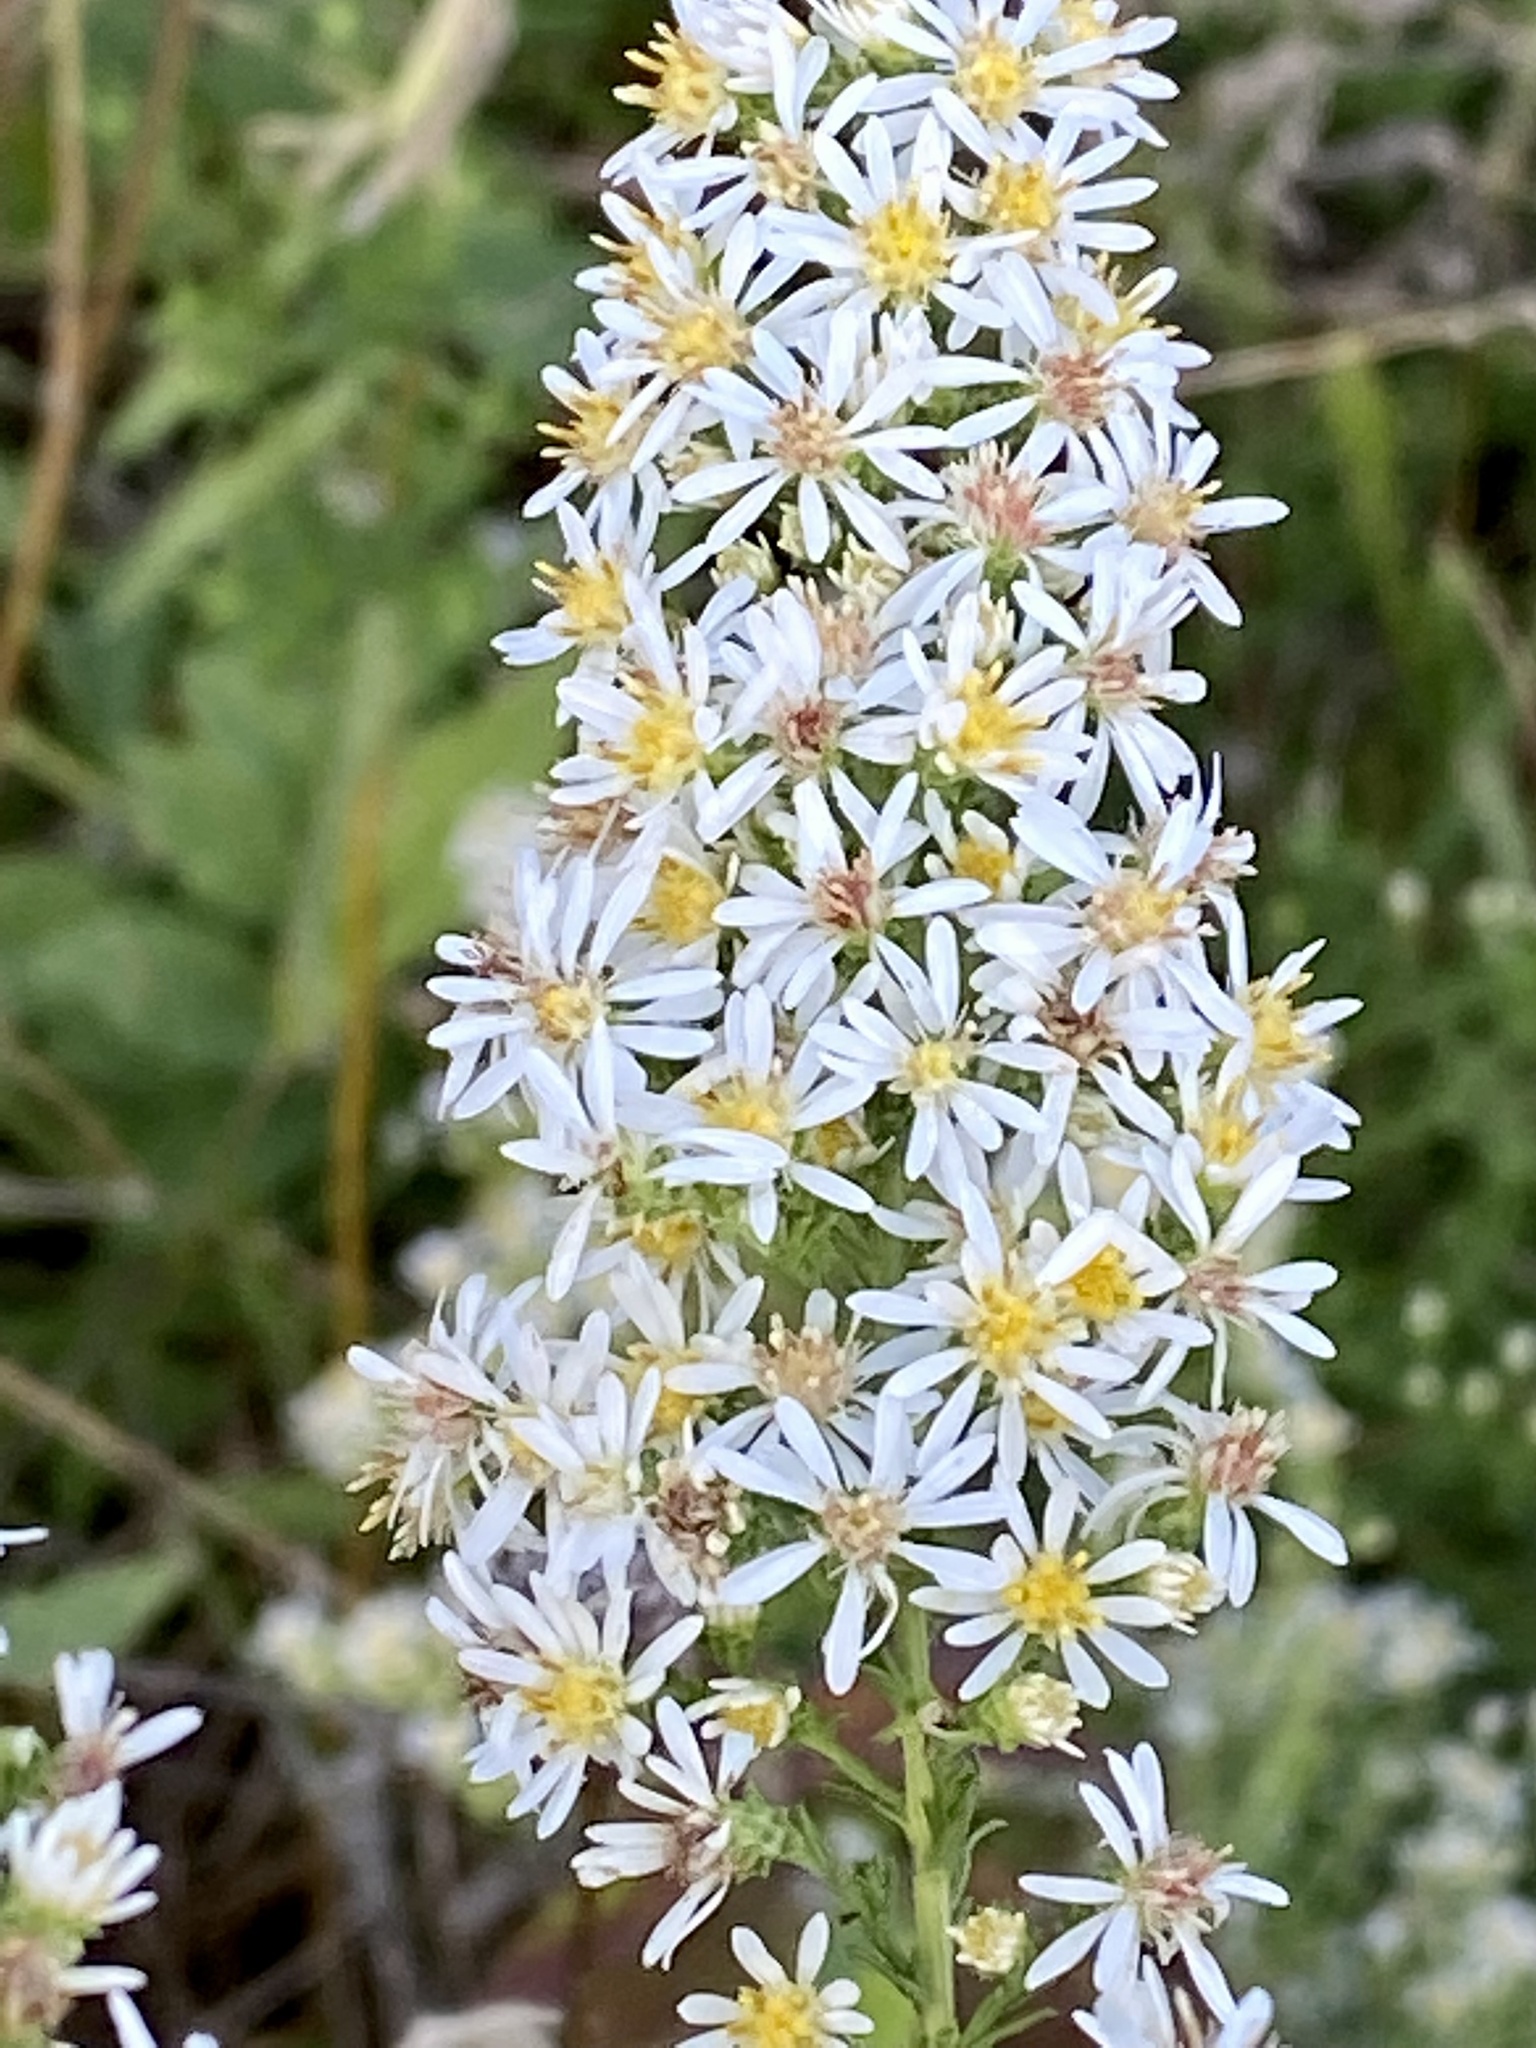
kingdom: Plantae
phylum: Tracheophyta
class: Magnoliopsida
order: Asterales
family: Asteraceae
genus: Symphyotrichum
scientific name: Symphyotrichum ericoides
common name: Heath aster
